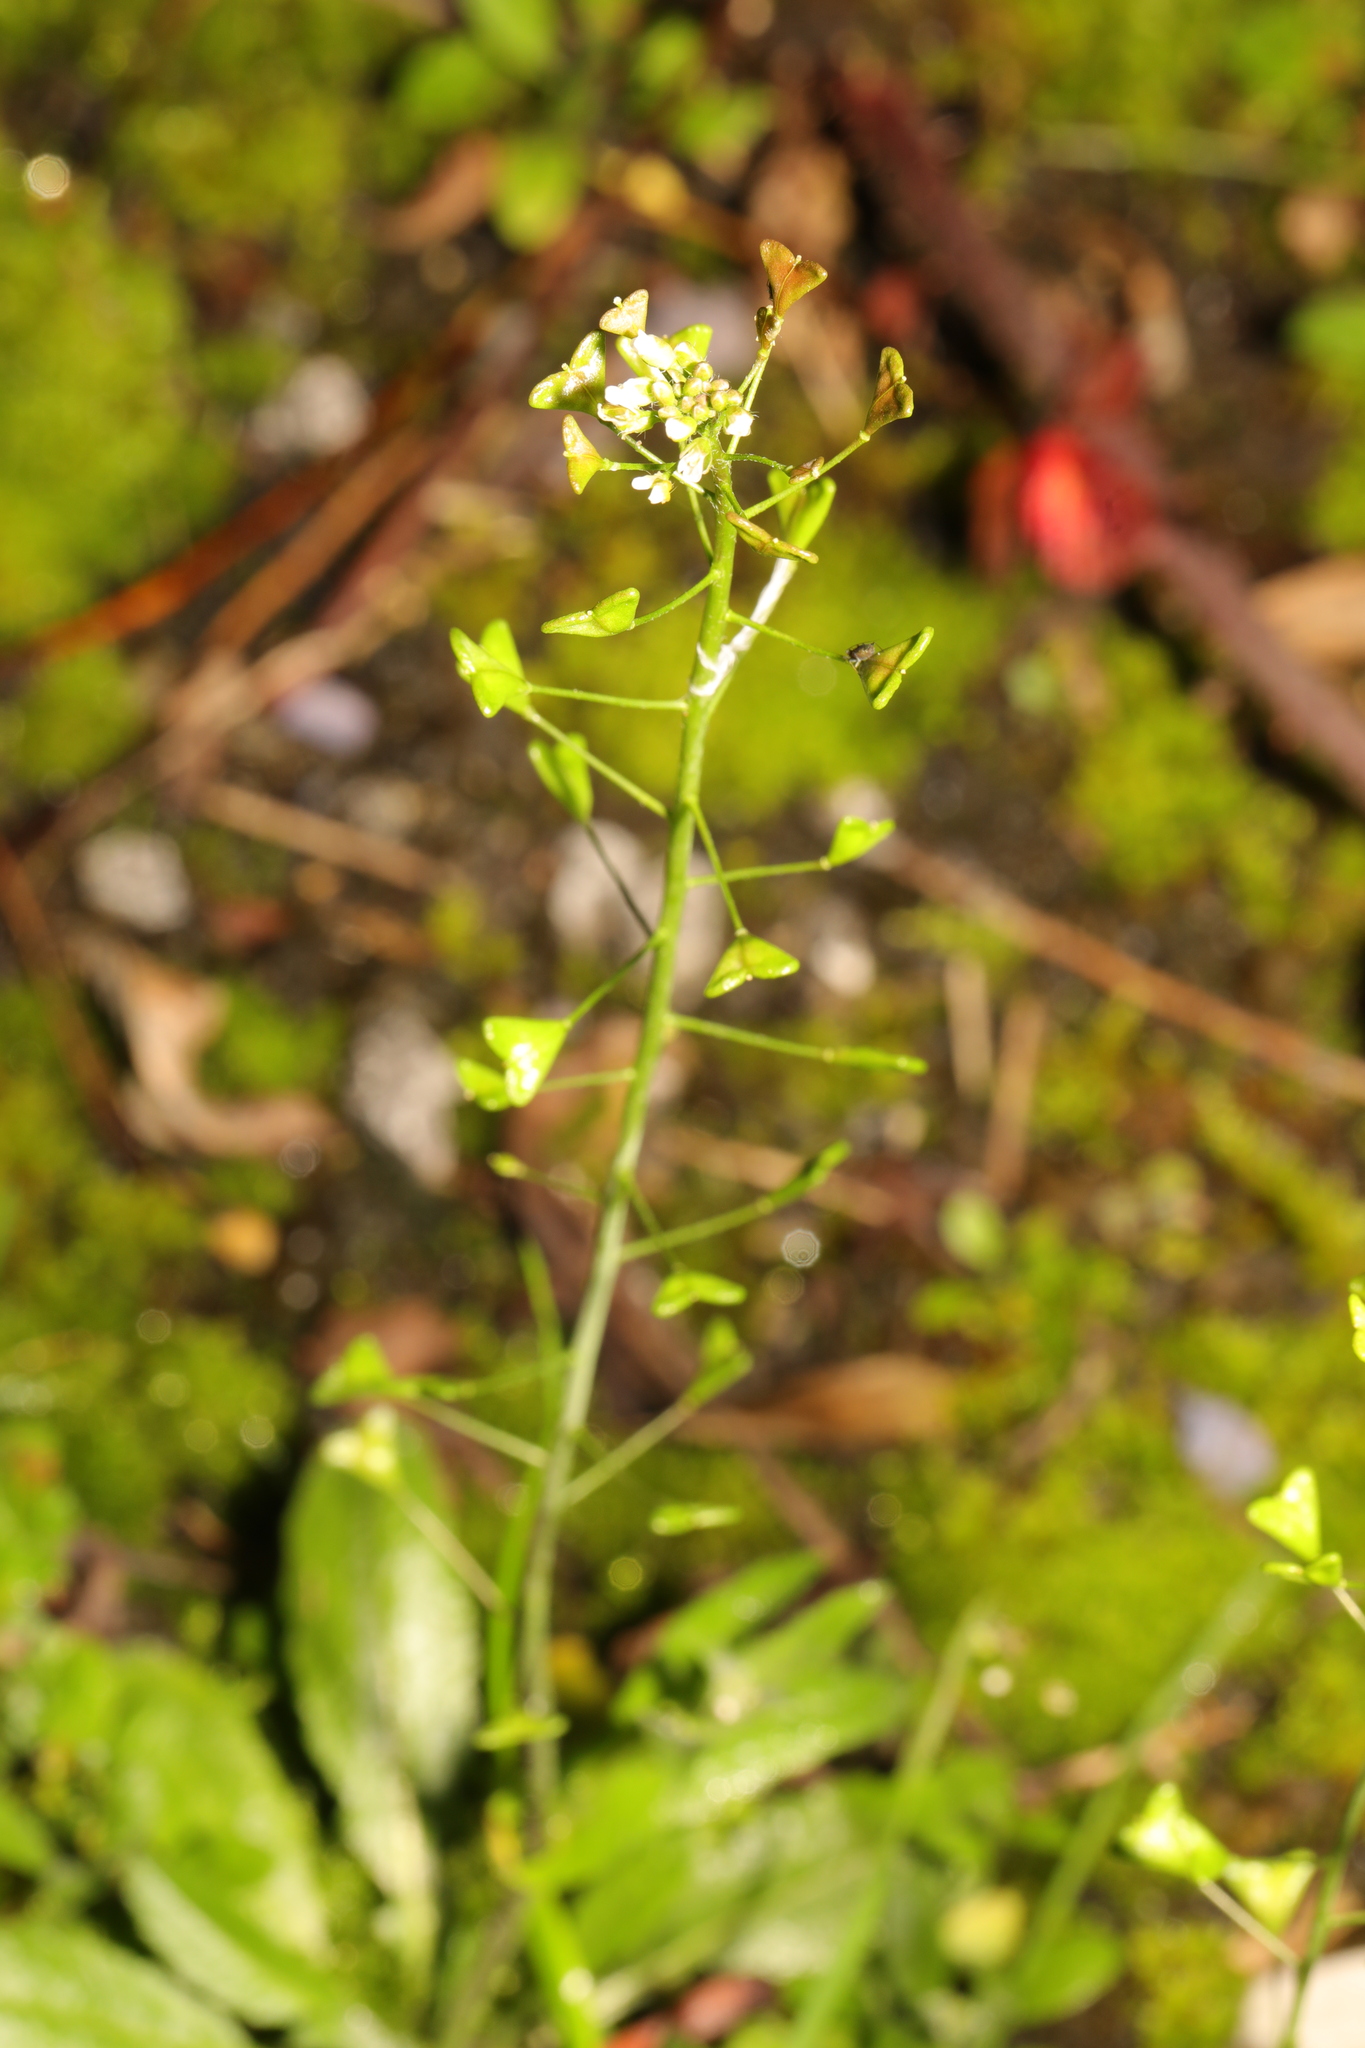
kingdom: Plantae
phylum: Tracheophyta
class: Magnoliopsida
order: Brassicales
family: Brassicaceae
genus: Capsella
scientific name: Capsella bursa-pastoris
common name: Shepherd's purse
